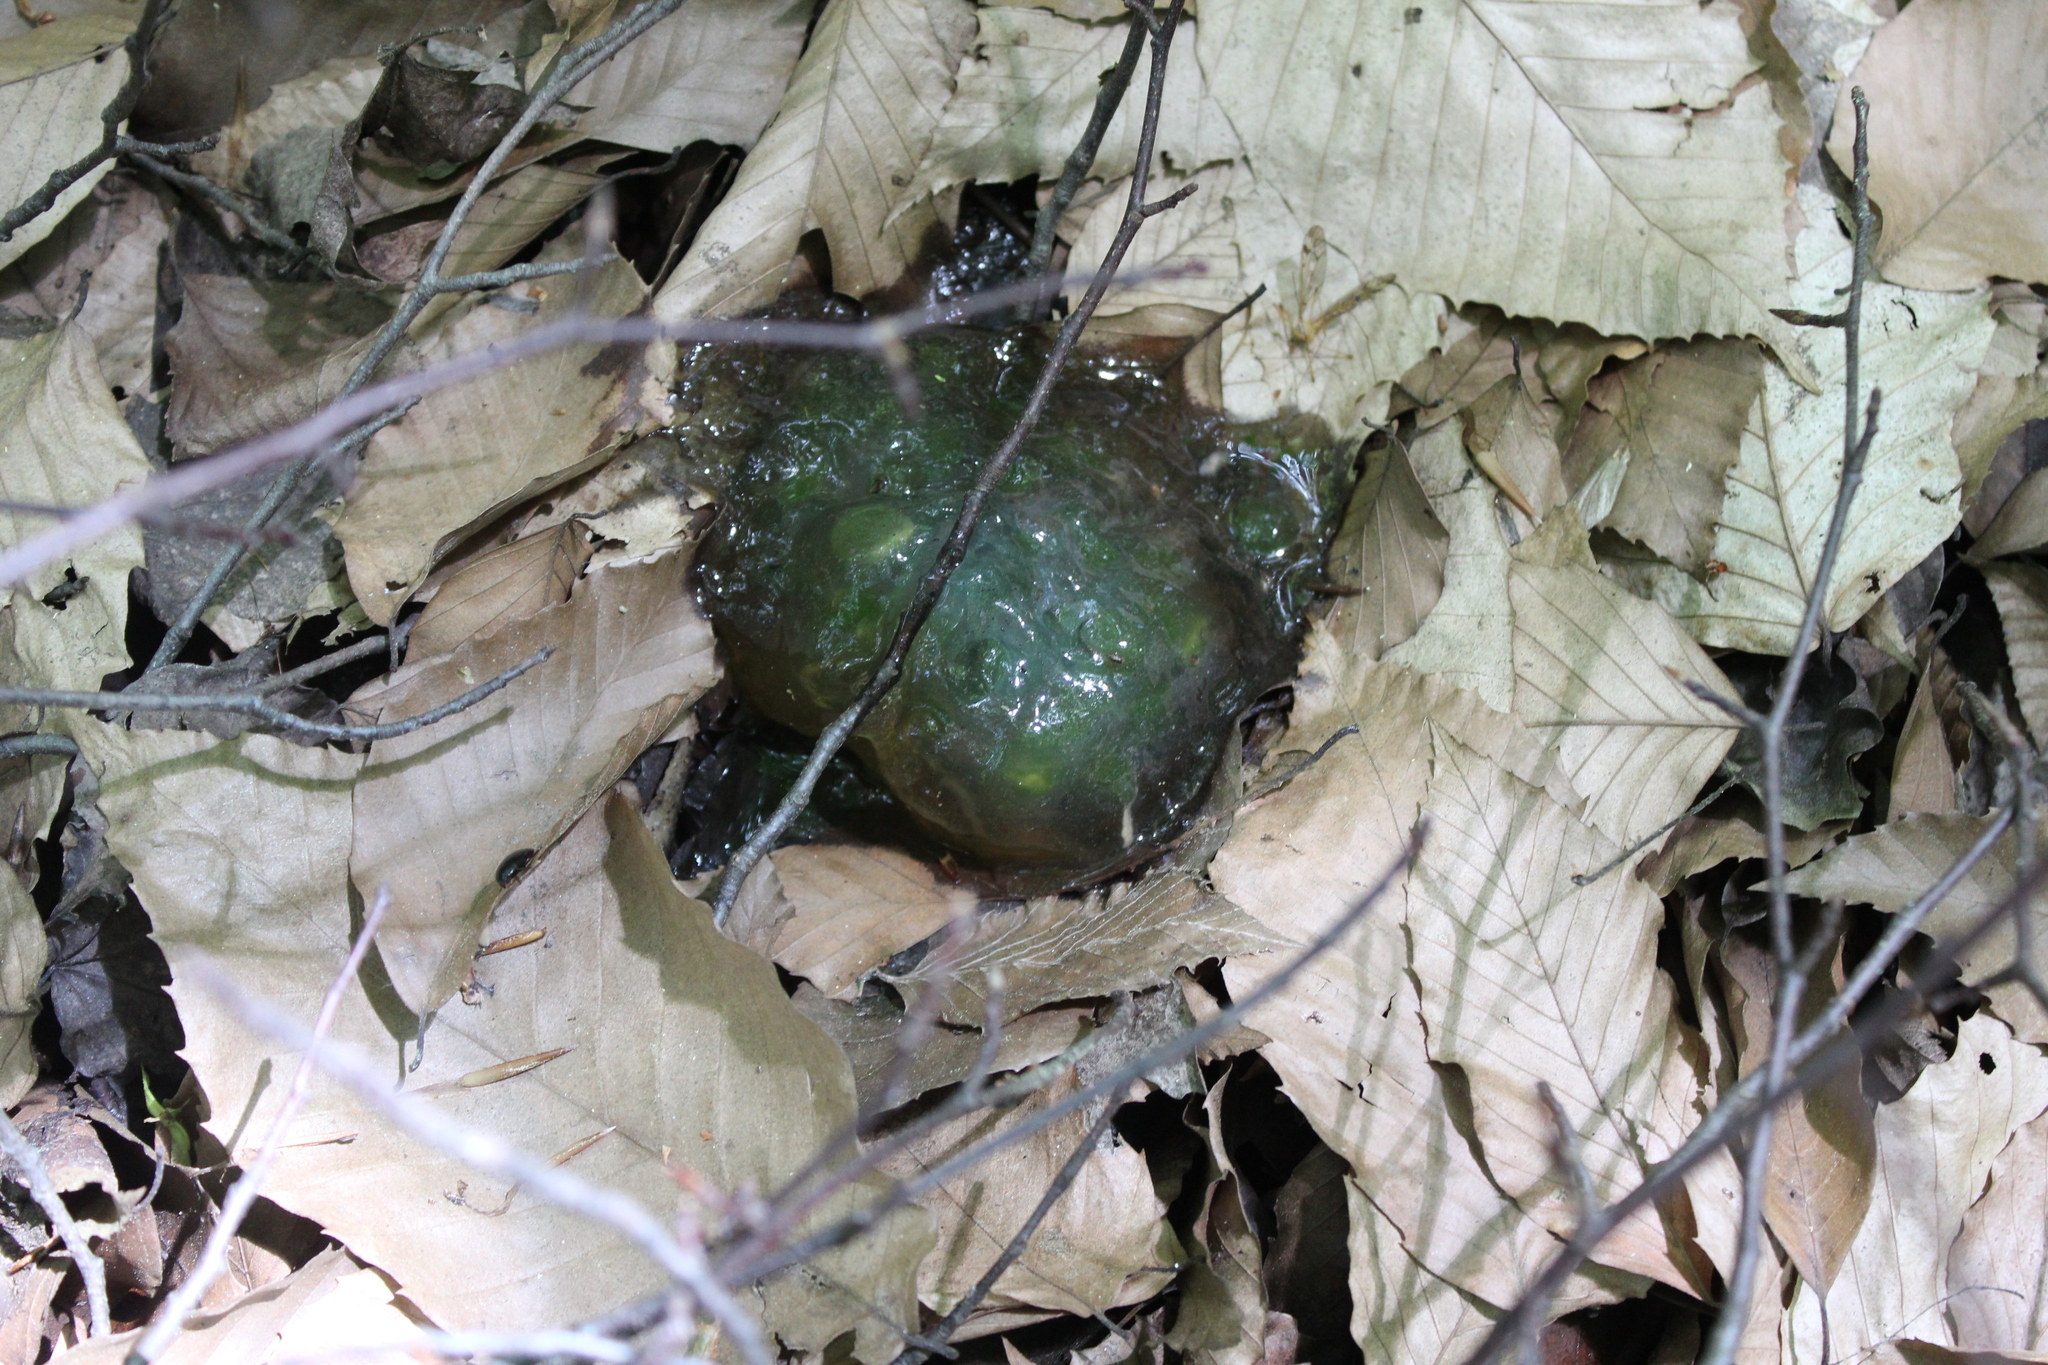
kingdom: Animalia
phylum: Chordata
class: Amphibia
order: Caudata
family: Ambystomatidae
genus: Ambystoma
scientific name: Ambystoma maculatum
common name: Spotted salamander
